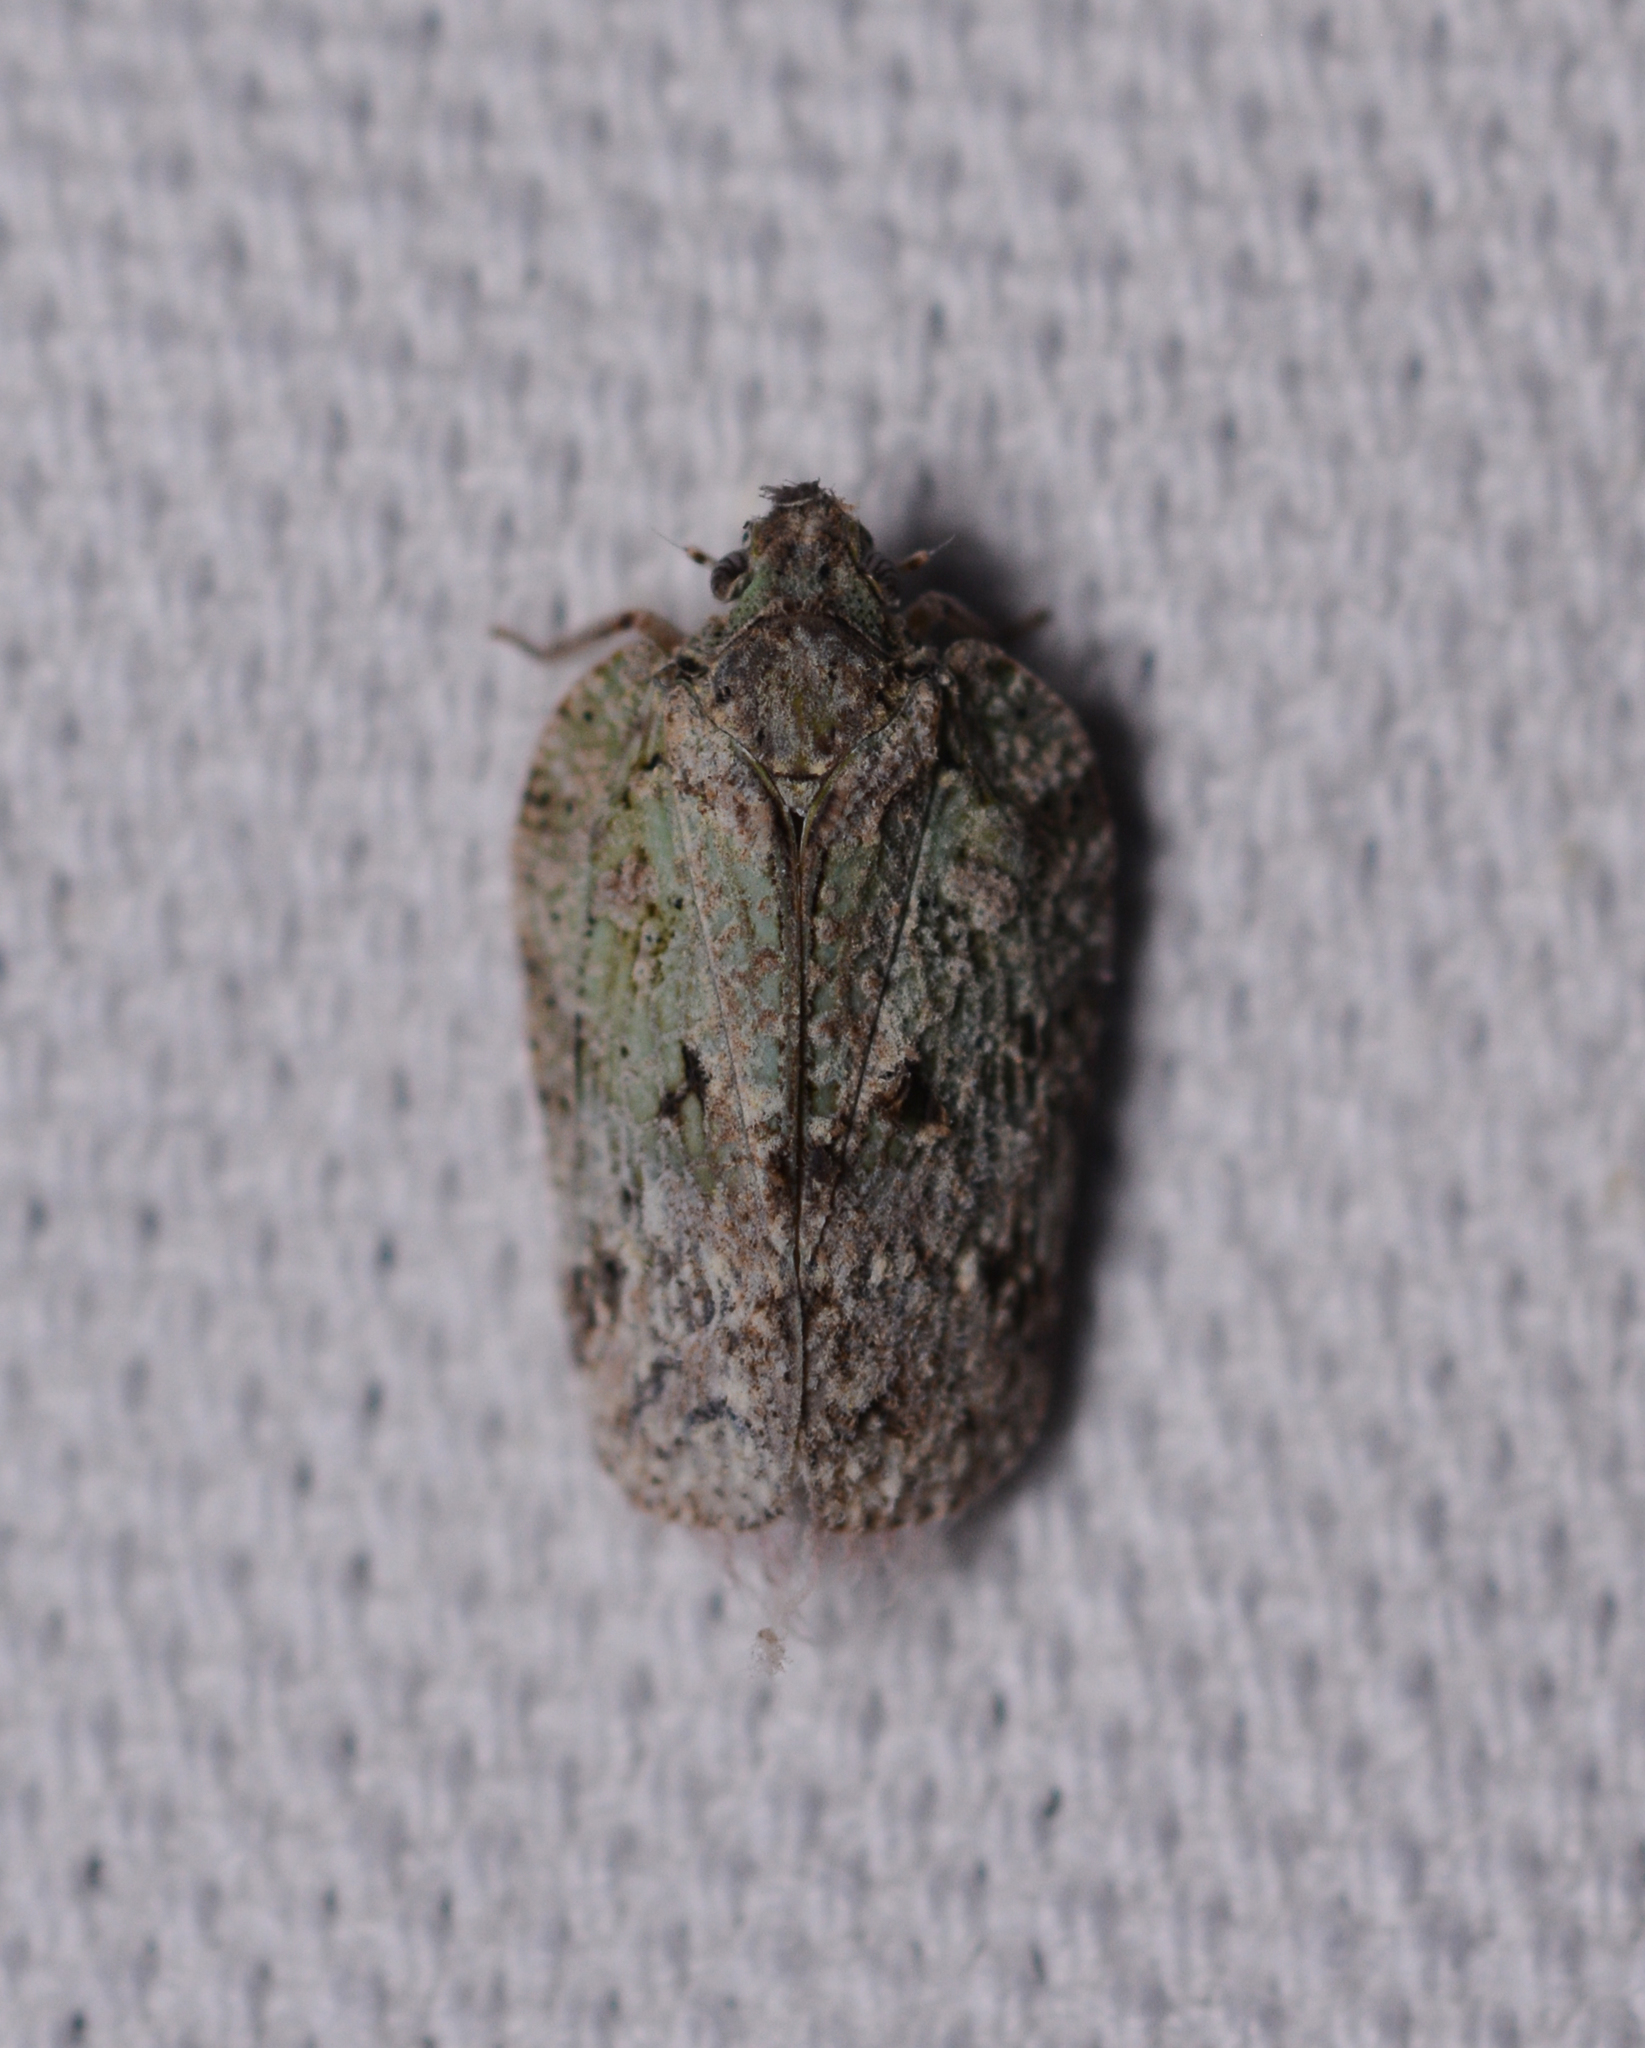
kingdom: Animalia
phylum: Arthropoda
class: Insecta
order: Hemiptera
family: Flatidae
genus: Flatoidinus
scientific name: Flatoidinus punctatus
